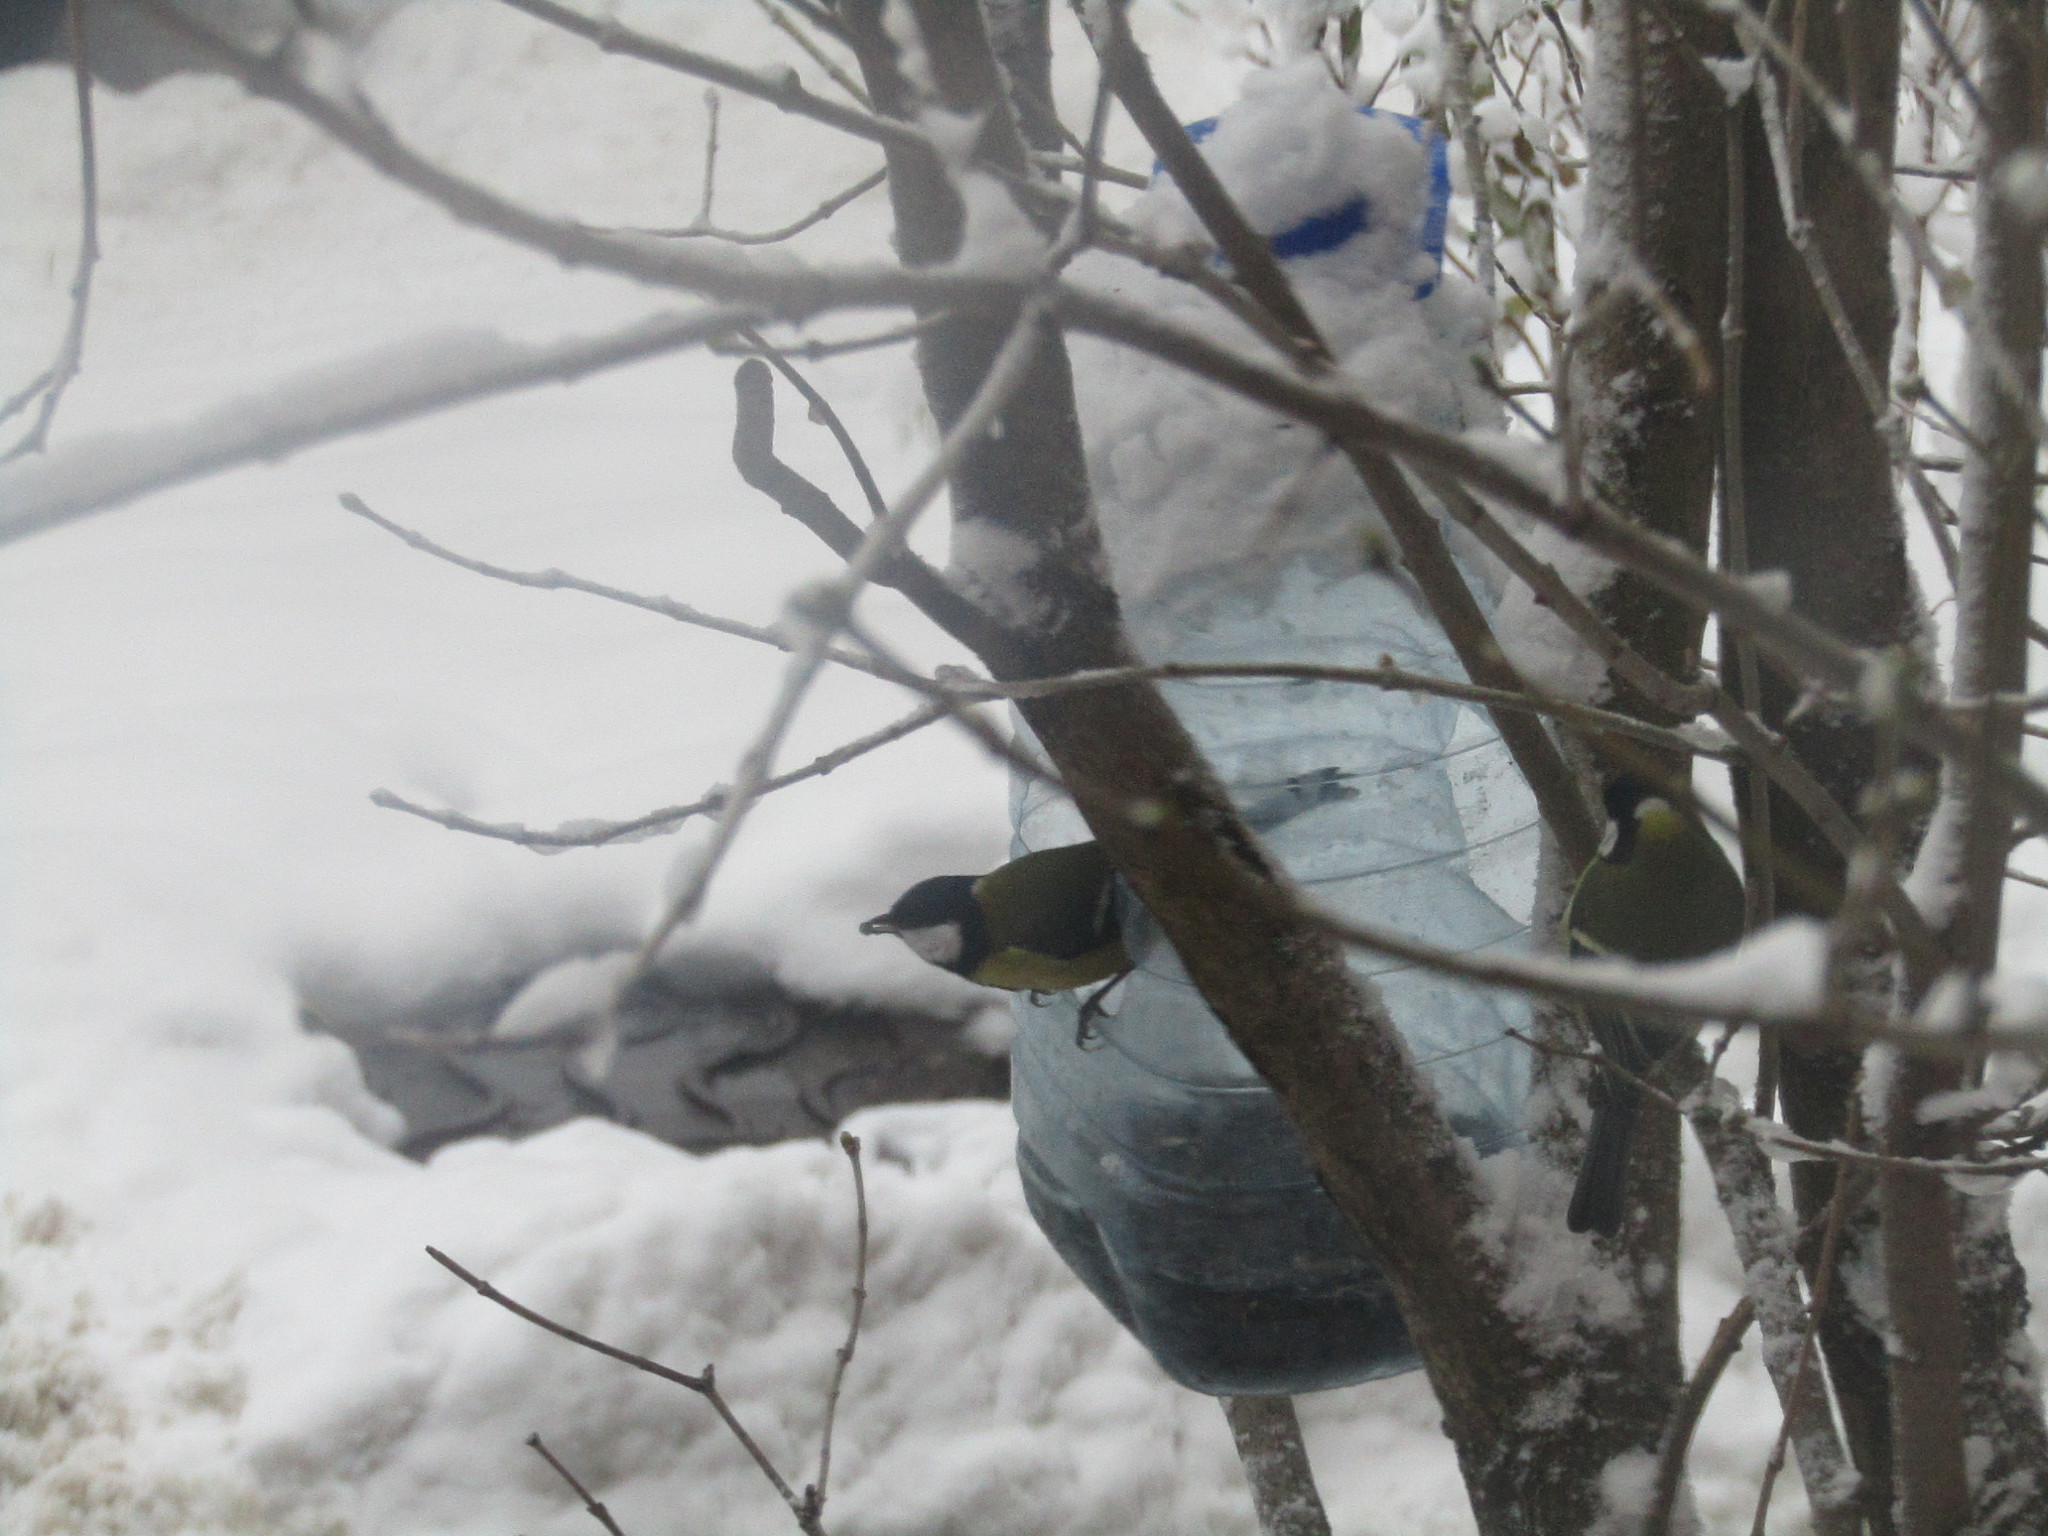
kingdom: Animalia
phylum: Chordata
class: Aves
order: Passeriformes
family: Paridae
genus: Parus
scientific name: Parus major
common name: Great tit
